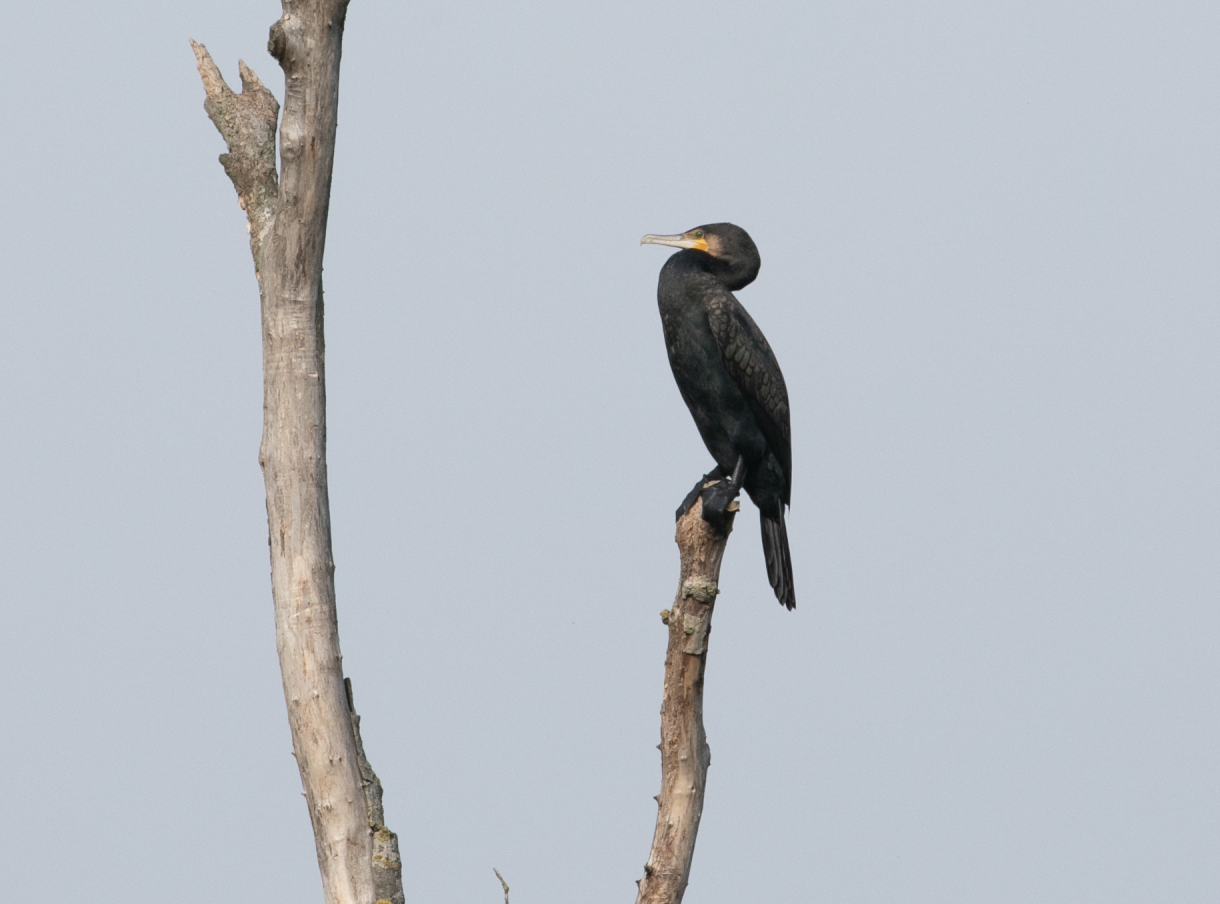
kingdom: Animalia
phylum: Chordata
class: Aves
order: Suliformes
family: Phalacrocoracidae
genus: Phalacrocorax
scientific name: Phalacrocorax carbo
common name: Great cormorant
